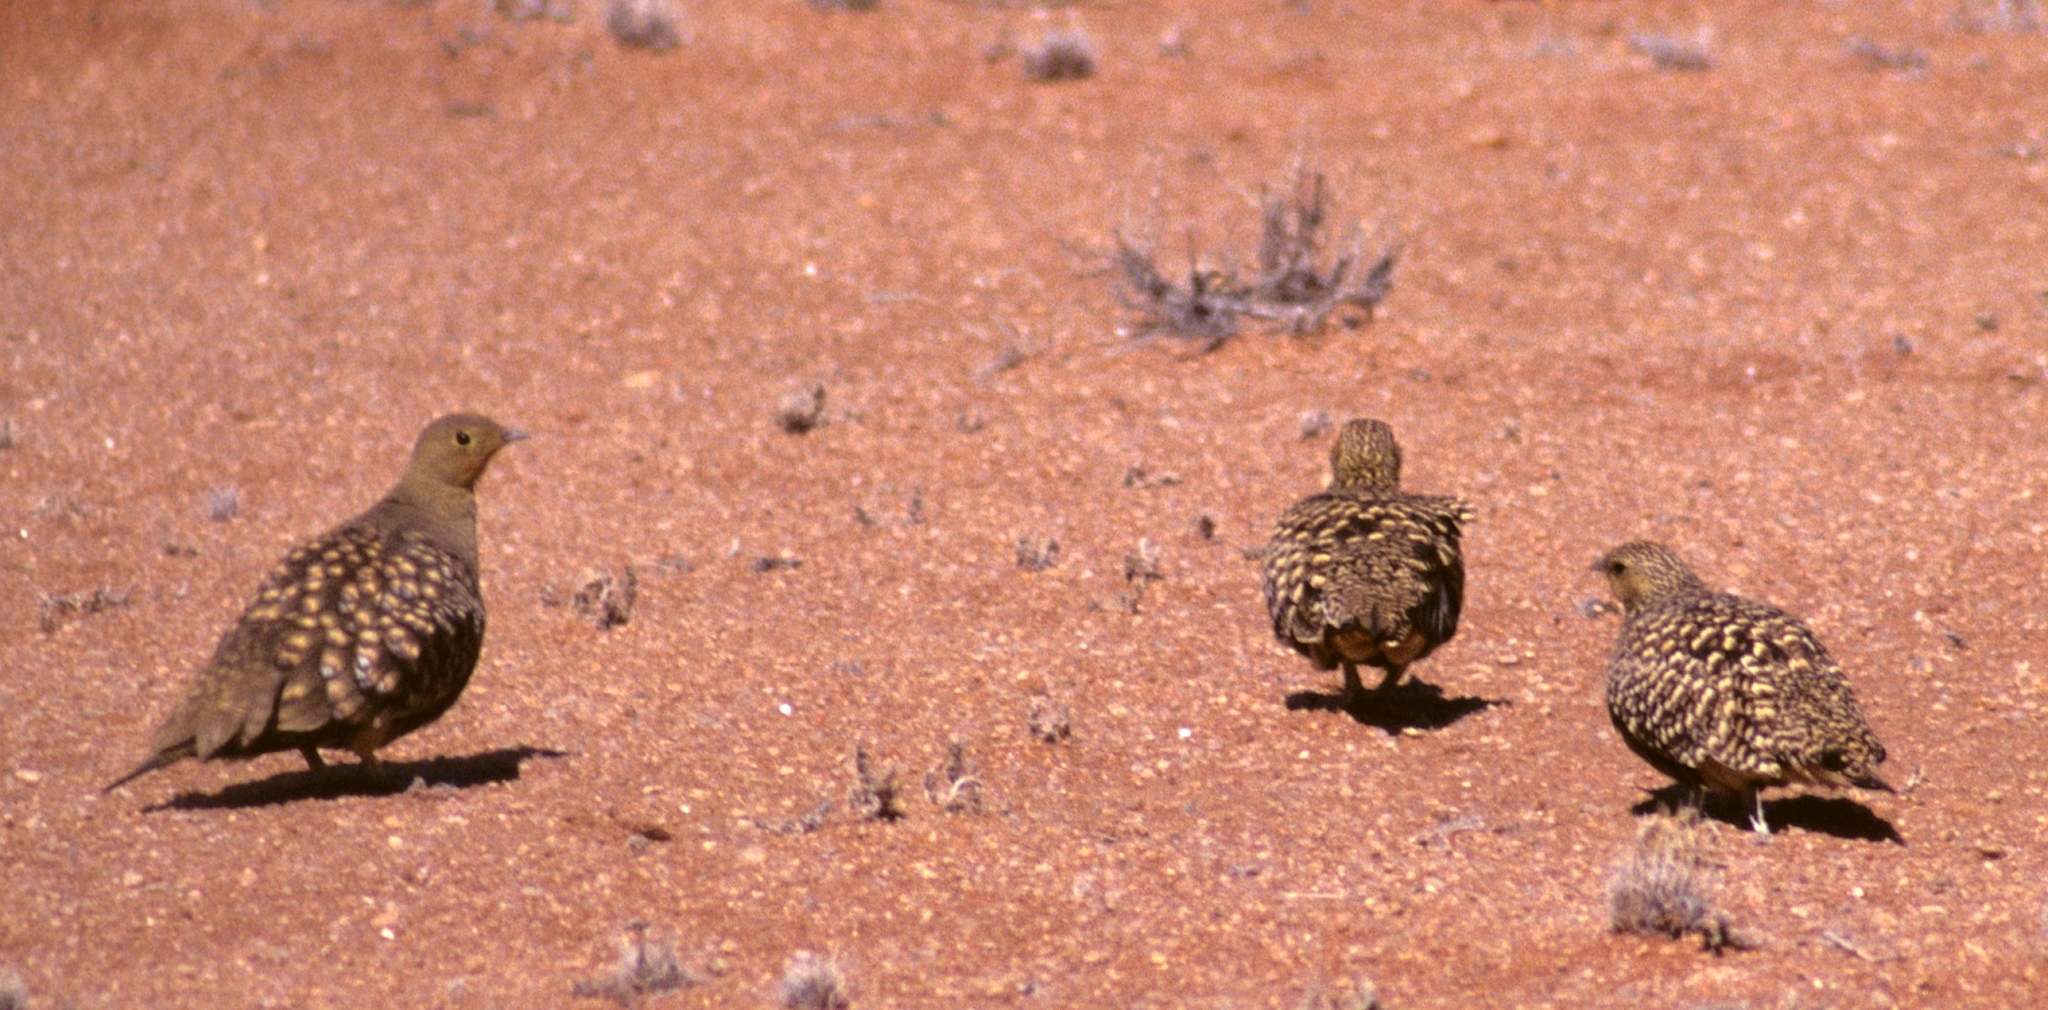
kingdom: Animalia
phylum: Chordata
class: Aves
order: Pteroclidiformes
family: Pteroclididae
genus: Pterocles
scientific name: Pterocles namaqua
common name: Namaqua sandgrouse
